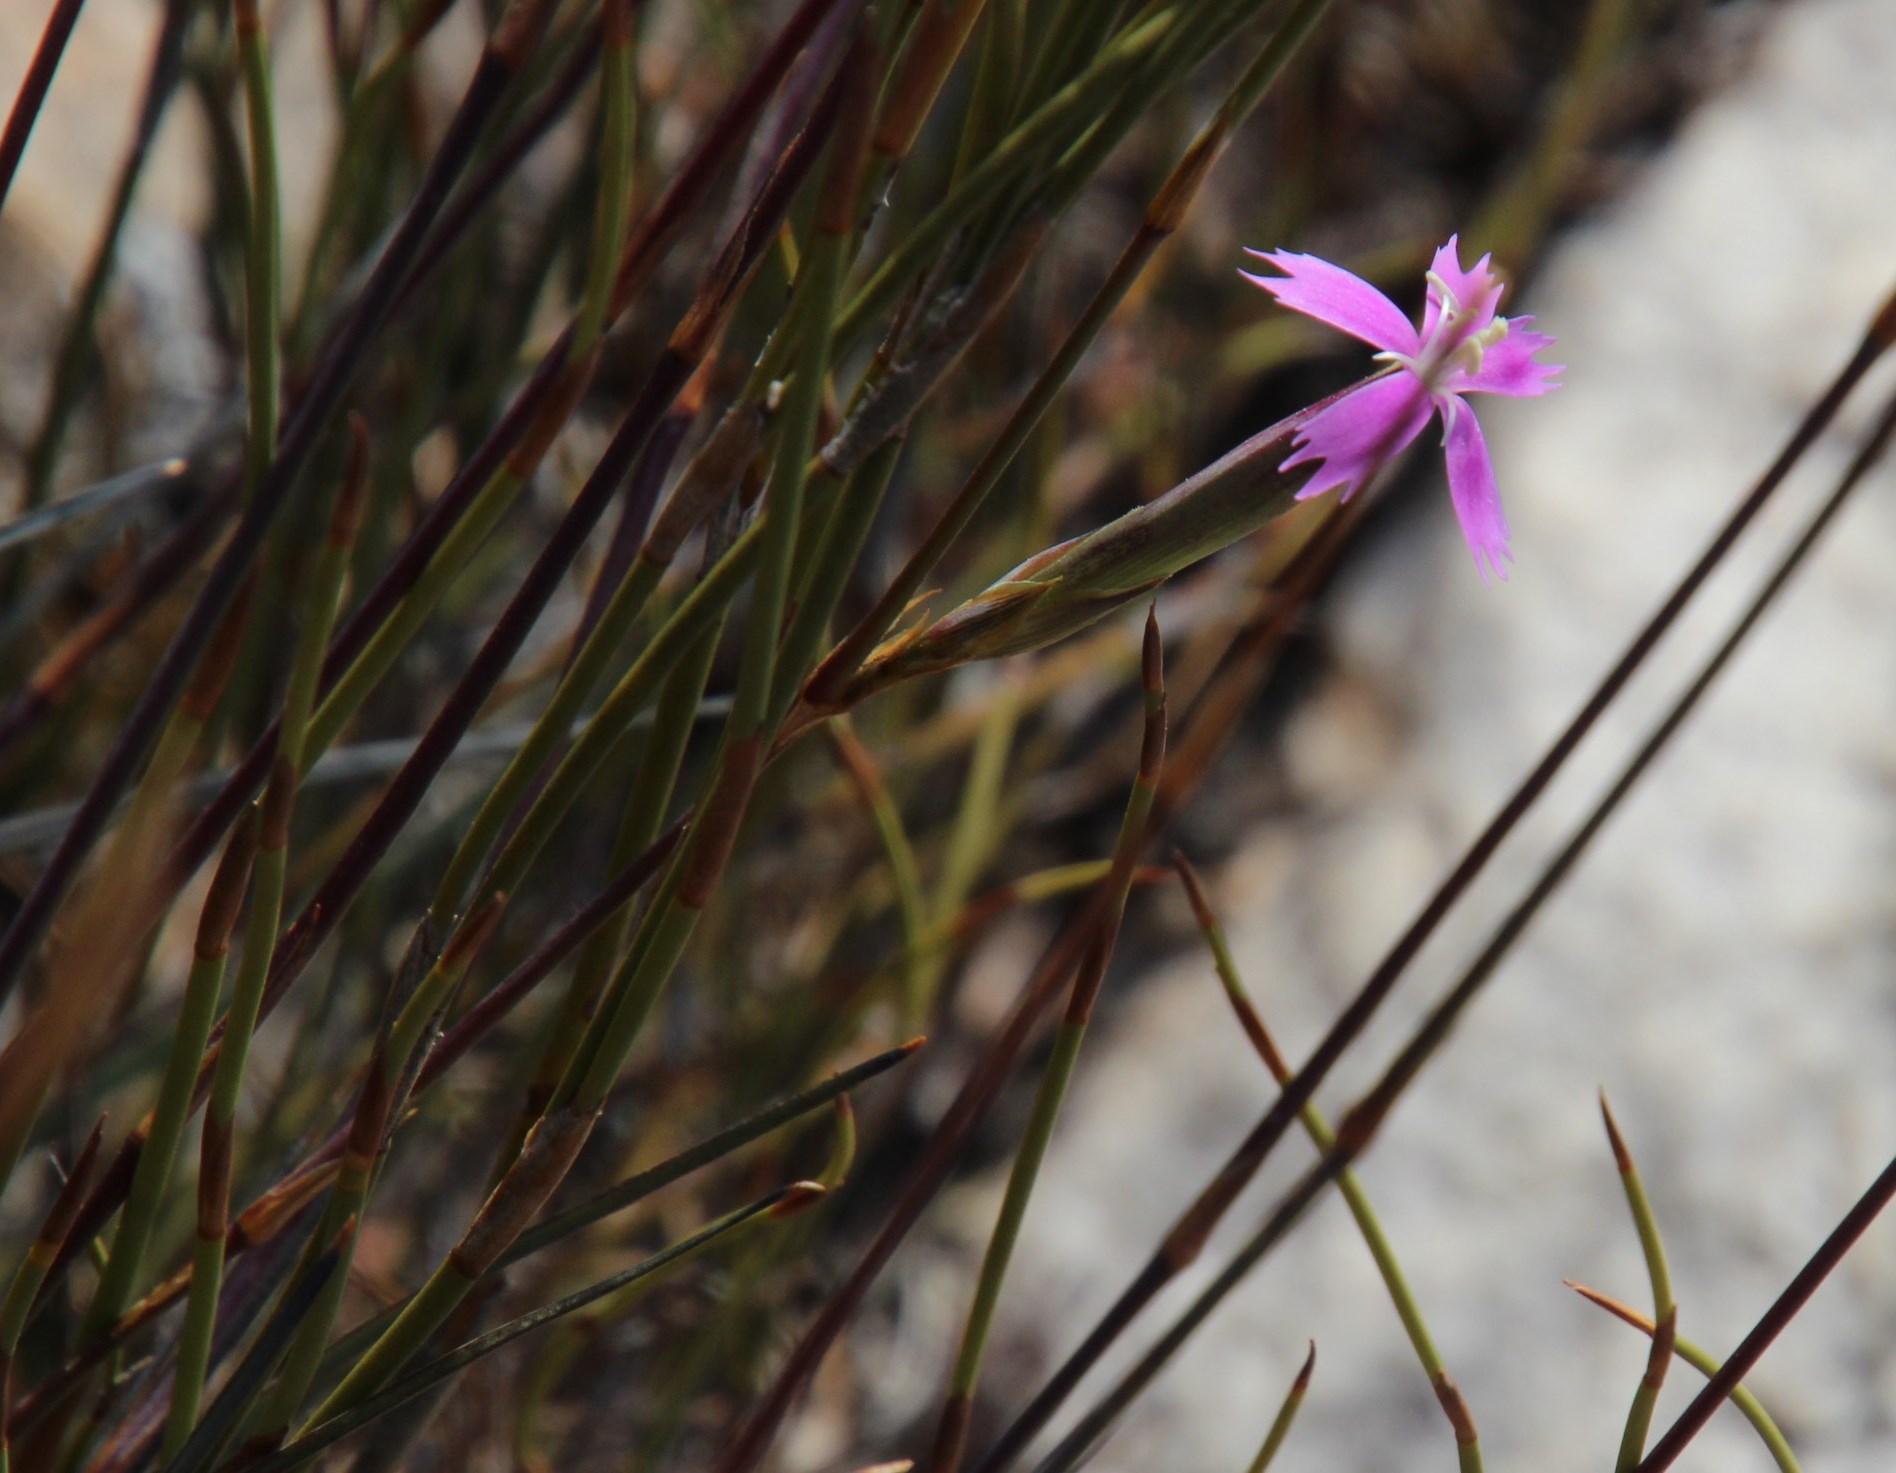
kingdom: Plantae
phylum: Tracheophyta
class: Magnoliopsida
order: Caryophyllales
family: Caryophyllaceae
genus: Dianthus
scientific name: Dianthus bolusii
